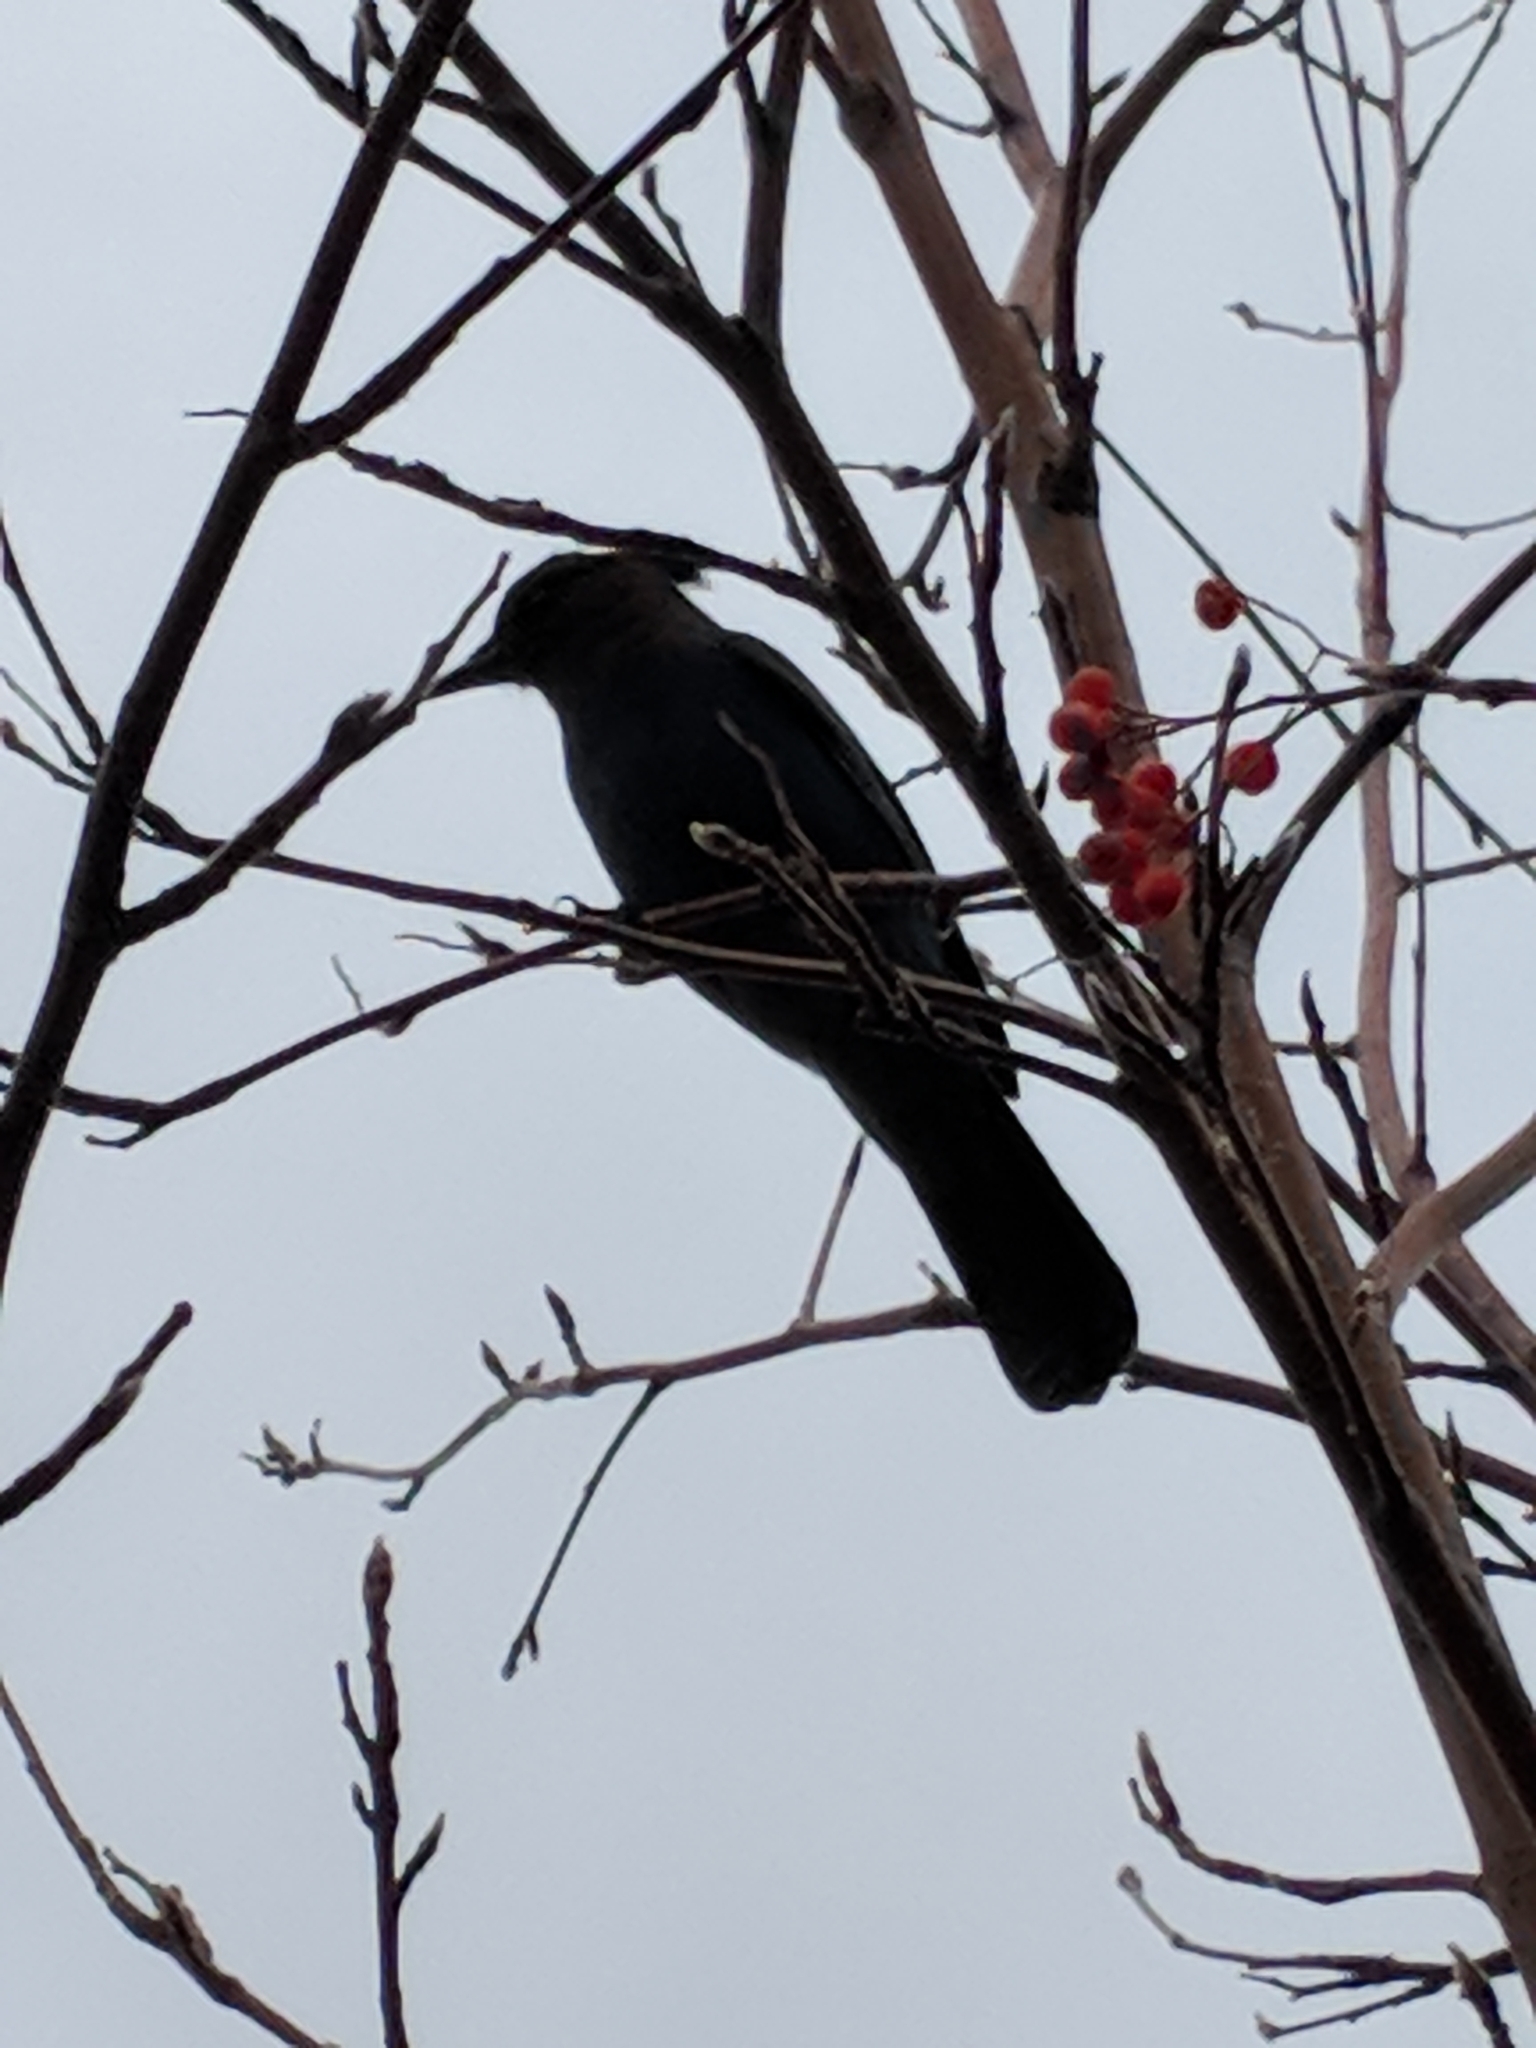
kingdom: Animalia
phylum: Chordata
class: Aves
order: Passeriformes
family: Corvidae
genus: Cyanocitta
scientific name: Cyanocitta stelleri
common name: Steller's jay
